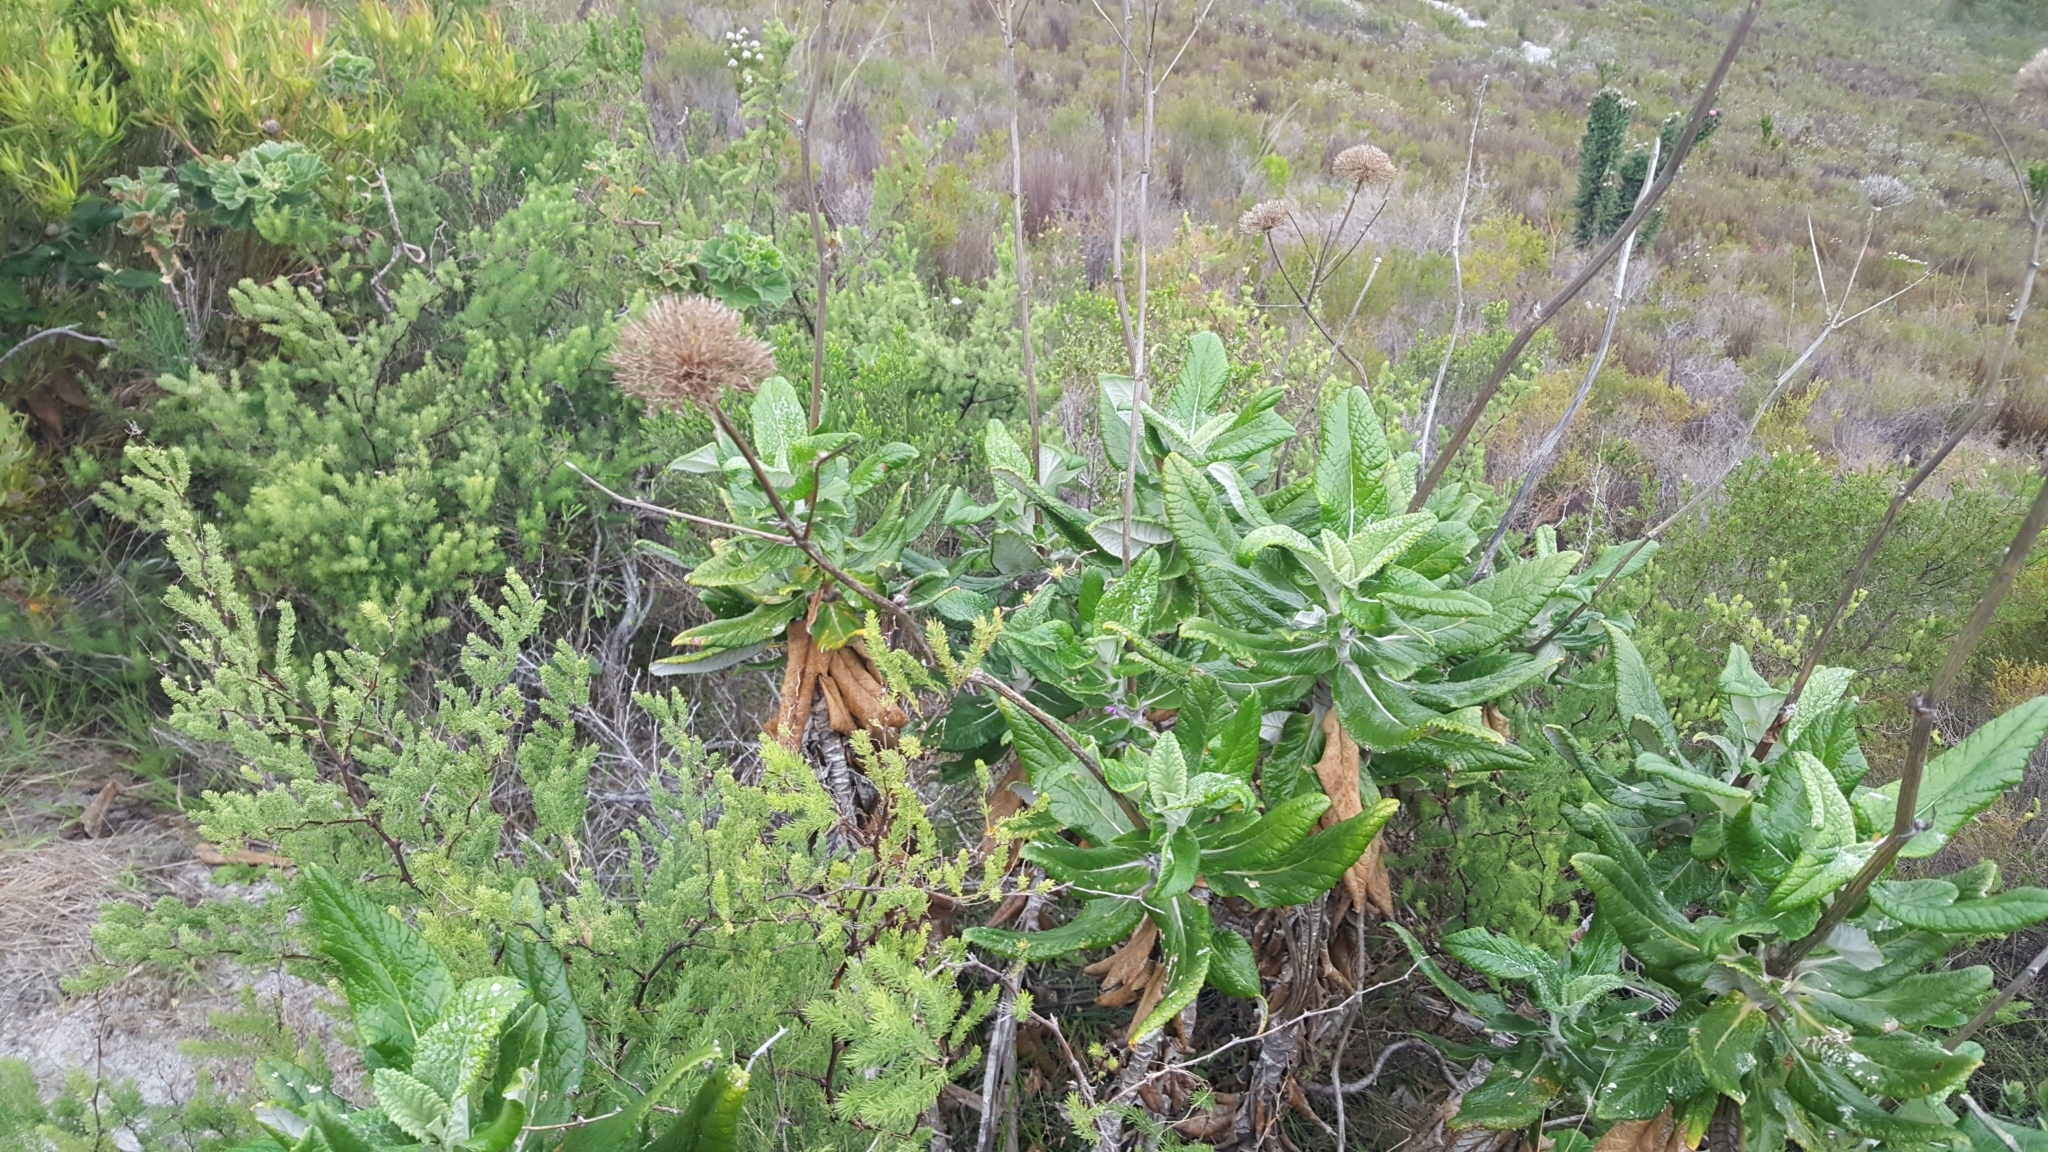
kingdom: Plantae
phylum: Tracheophyta
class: Magnoliopsida
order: Apiales
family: Apiaceae
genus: Hermas
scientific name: Hermas villosa
